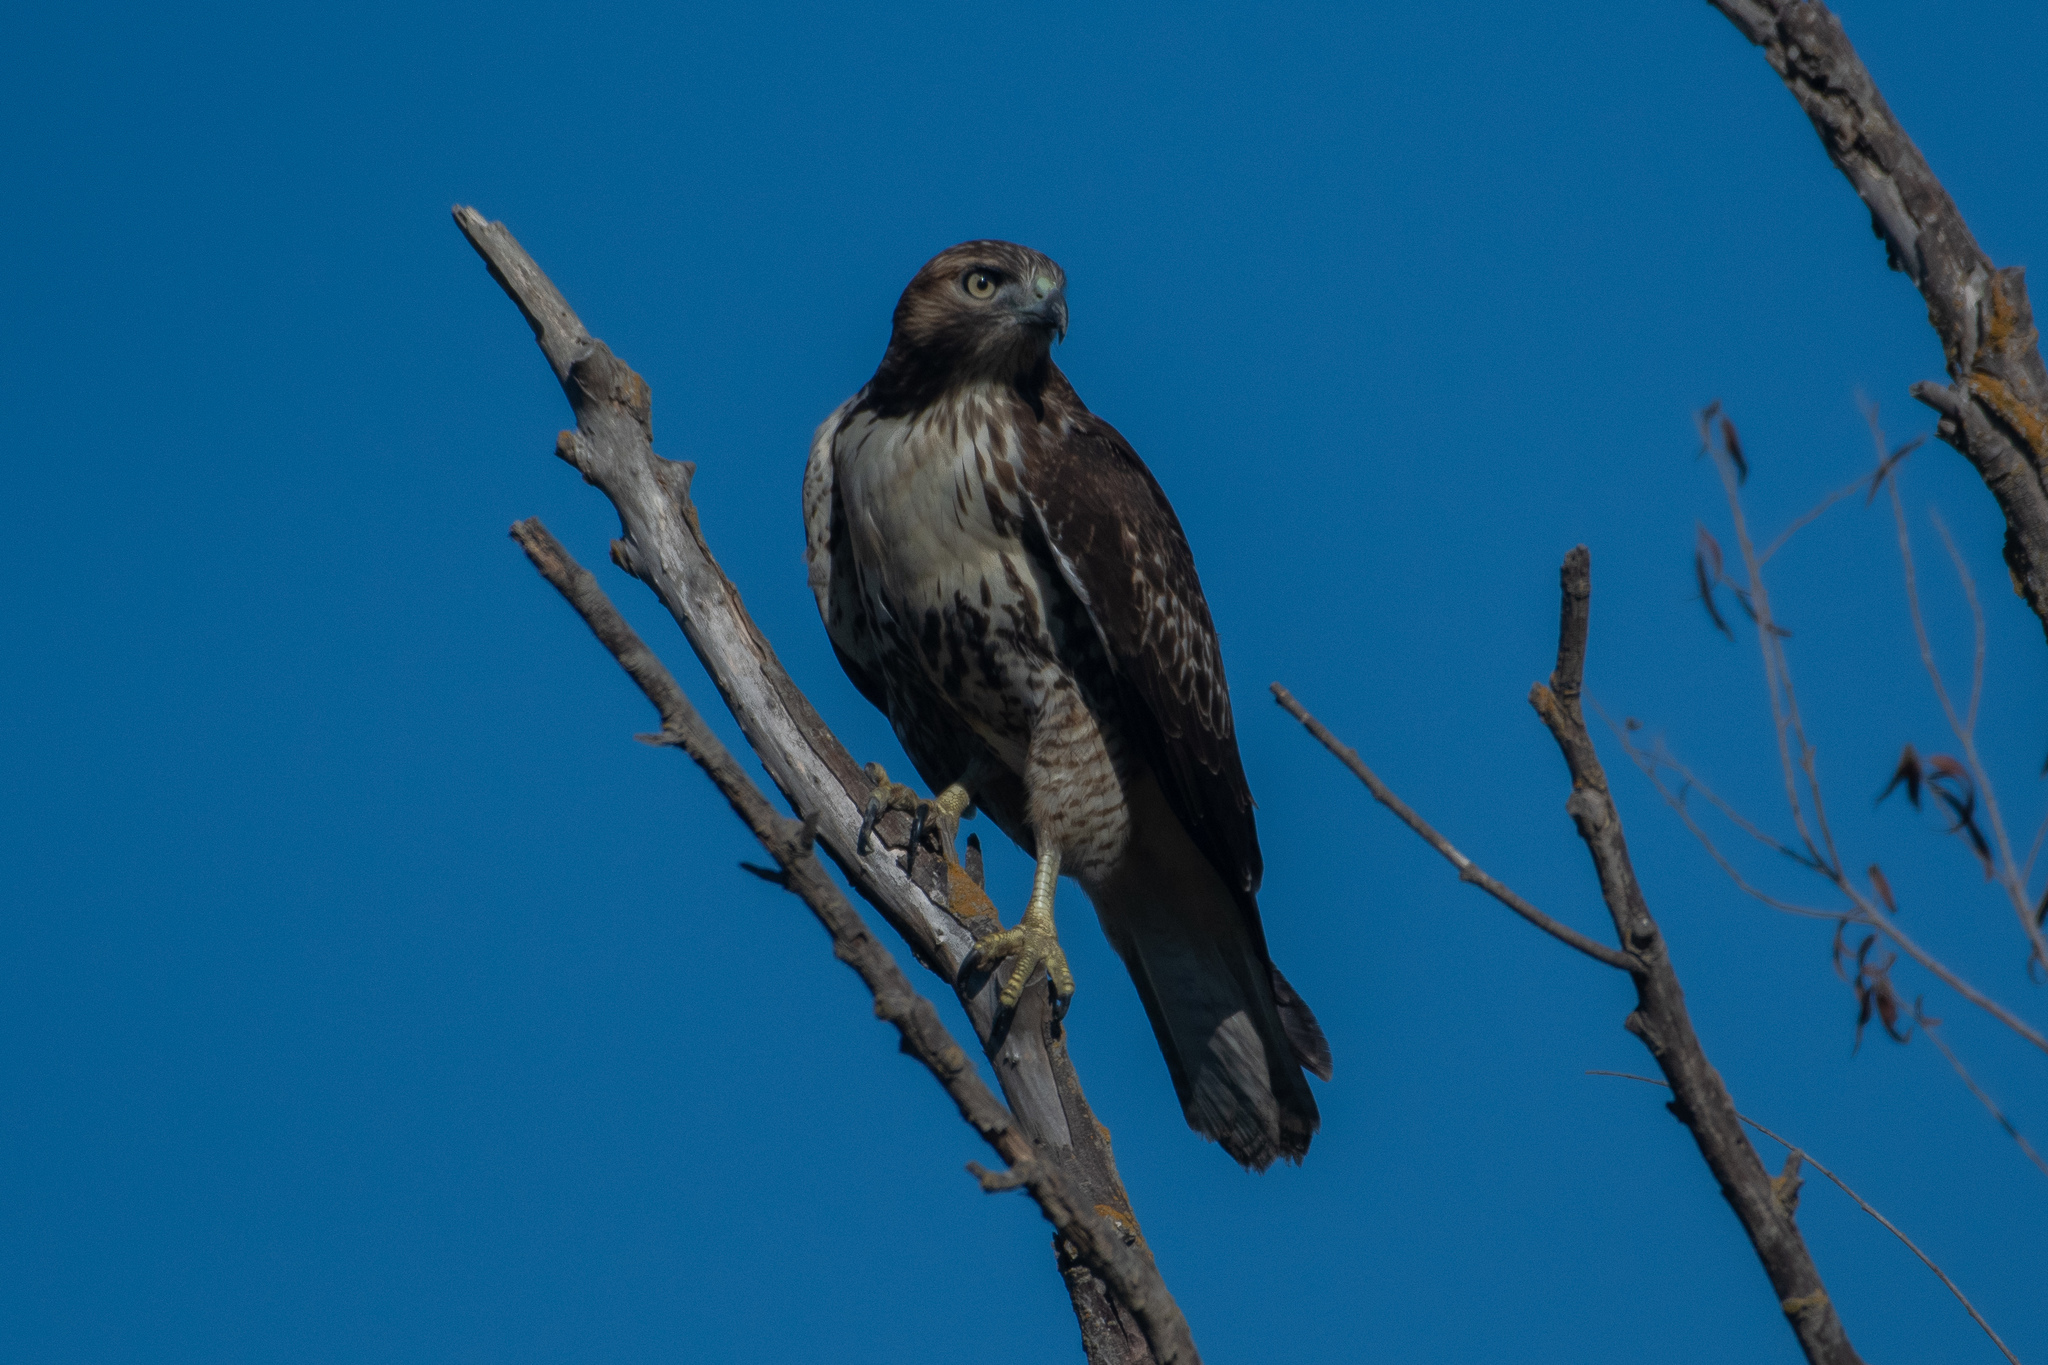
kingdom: Animalia
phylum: Chordata
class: Aves
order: Accipitriformes
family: Accipitridae
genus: Buteo
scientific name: Buteo jamaicensis
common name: Red-tailed hawk
